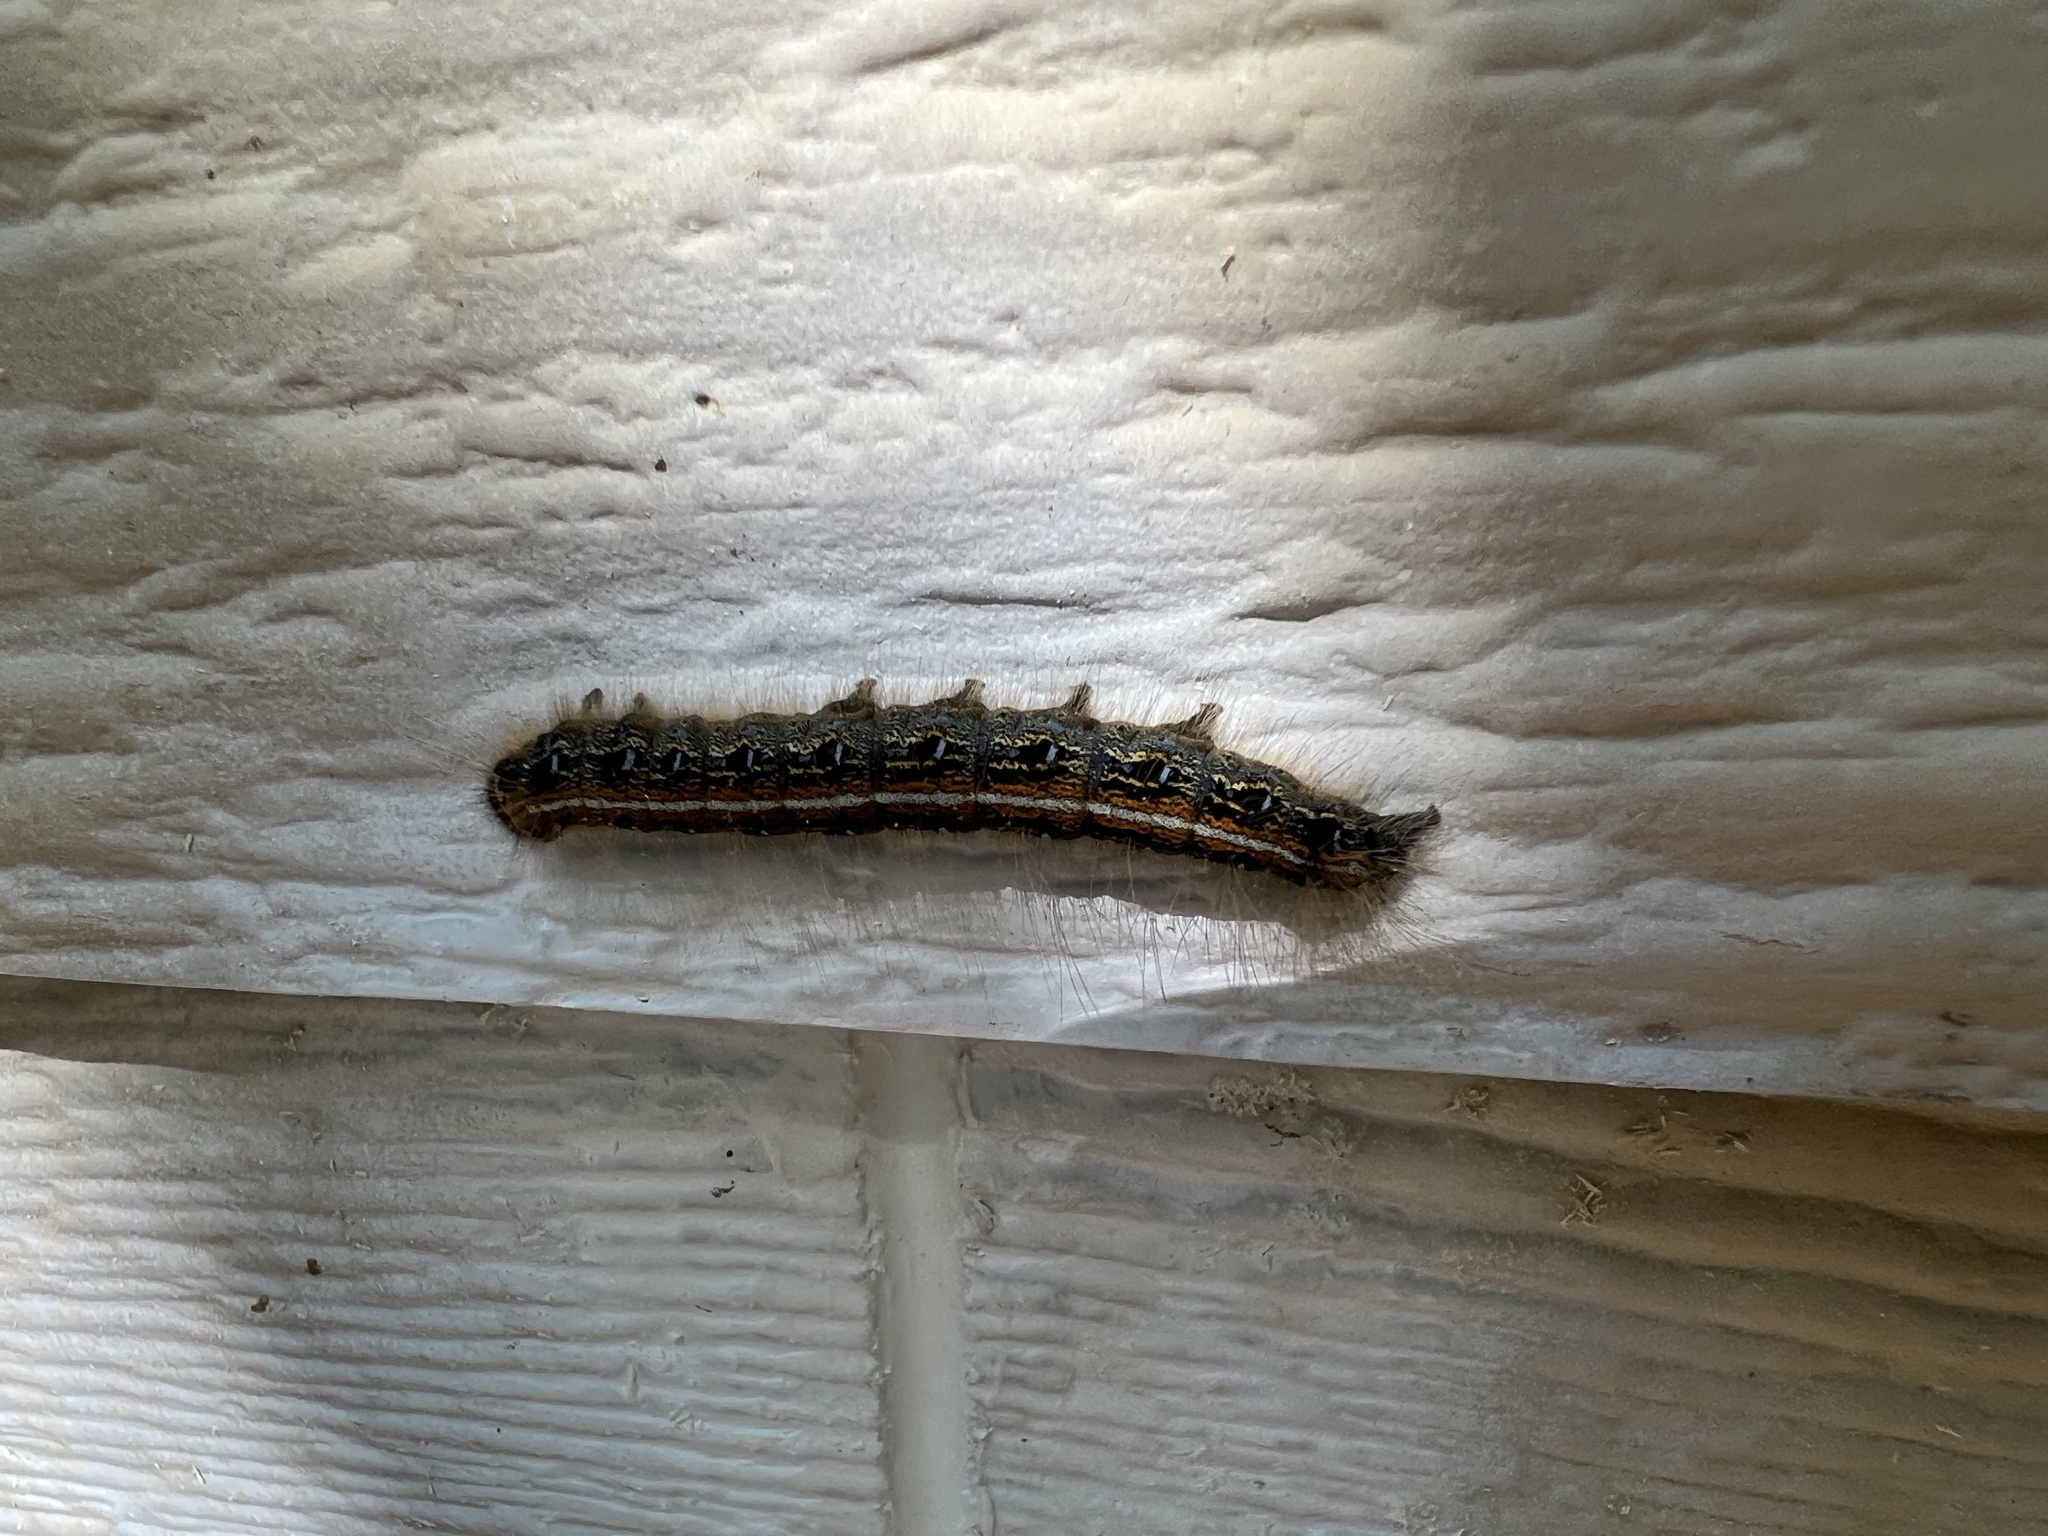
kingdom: Animalia
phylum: Arthropoda
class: Insecta
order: Lepidoptera
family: Lasiocampidae
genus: Malacosoma
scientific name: Malacosoma americana
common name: Eastern tent caterpillar moth
